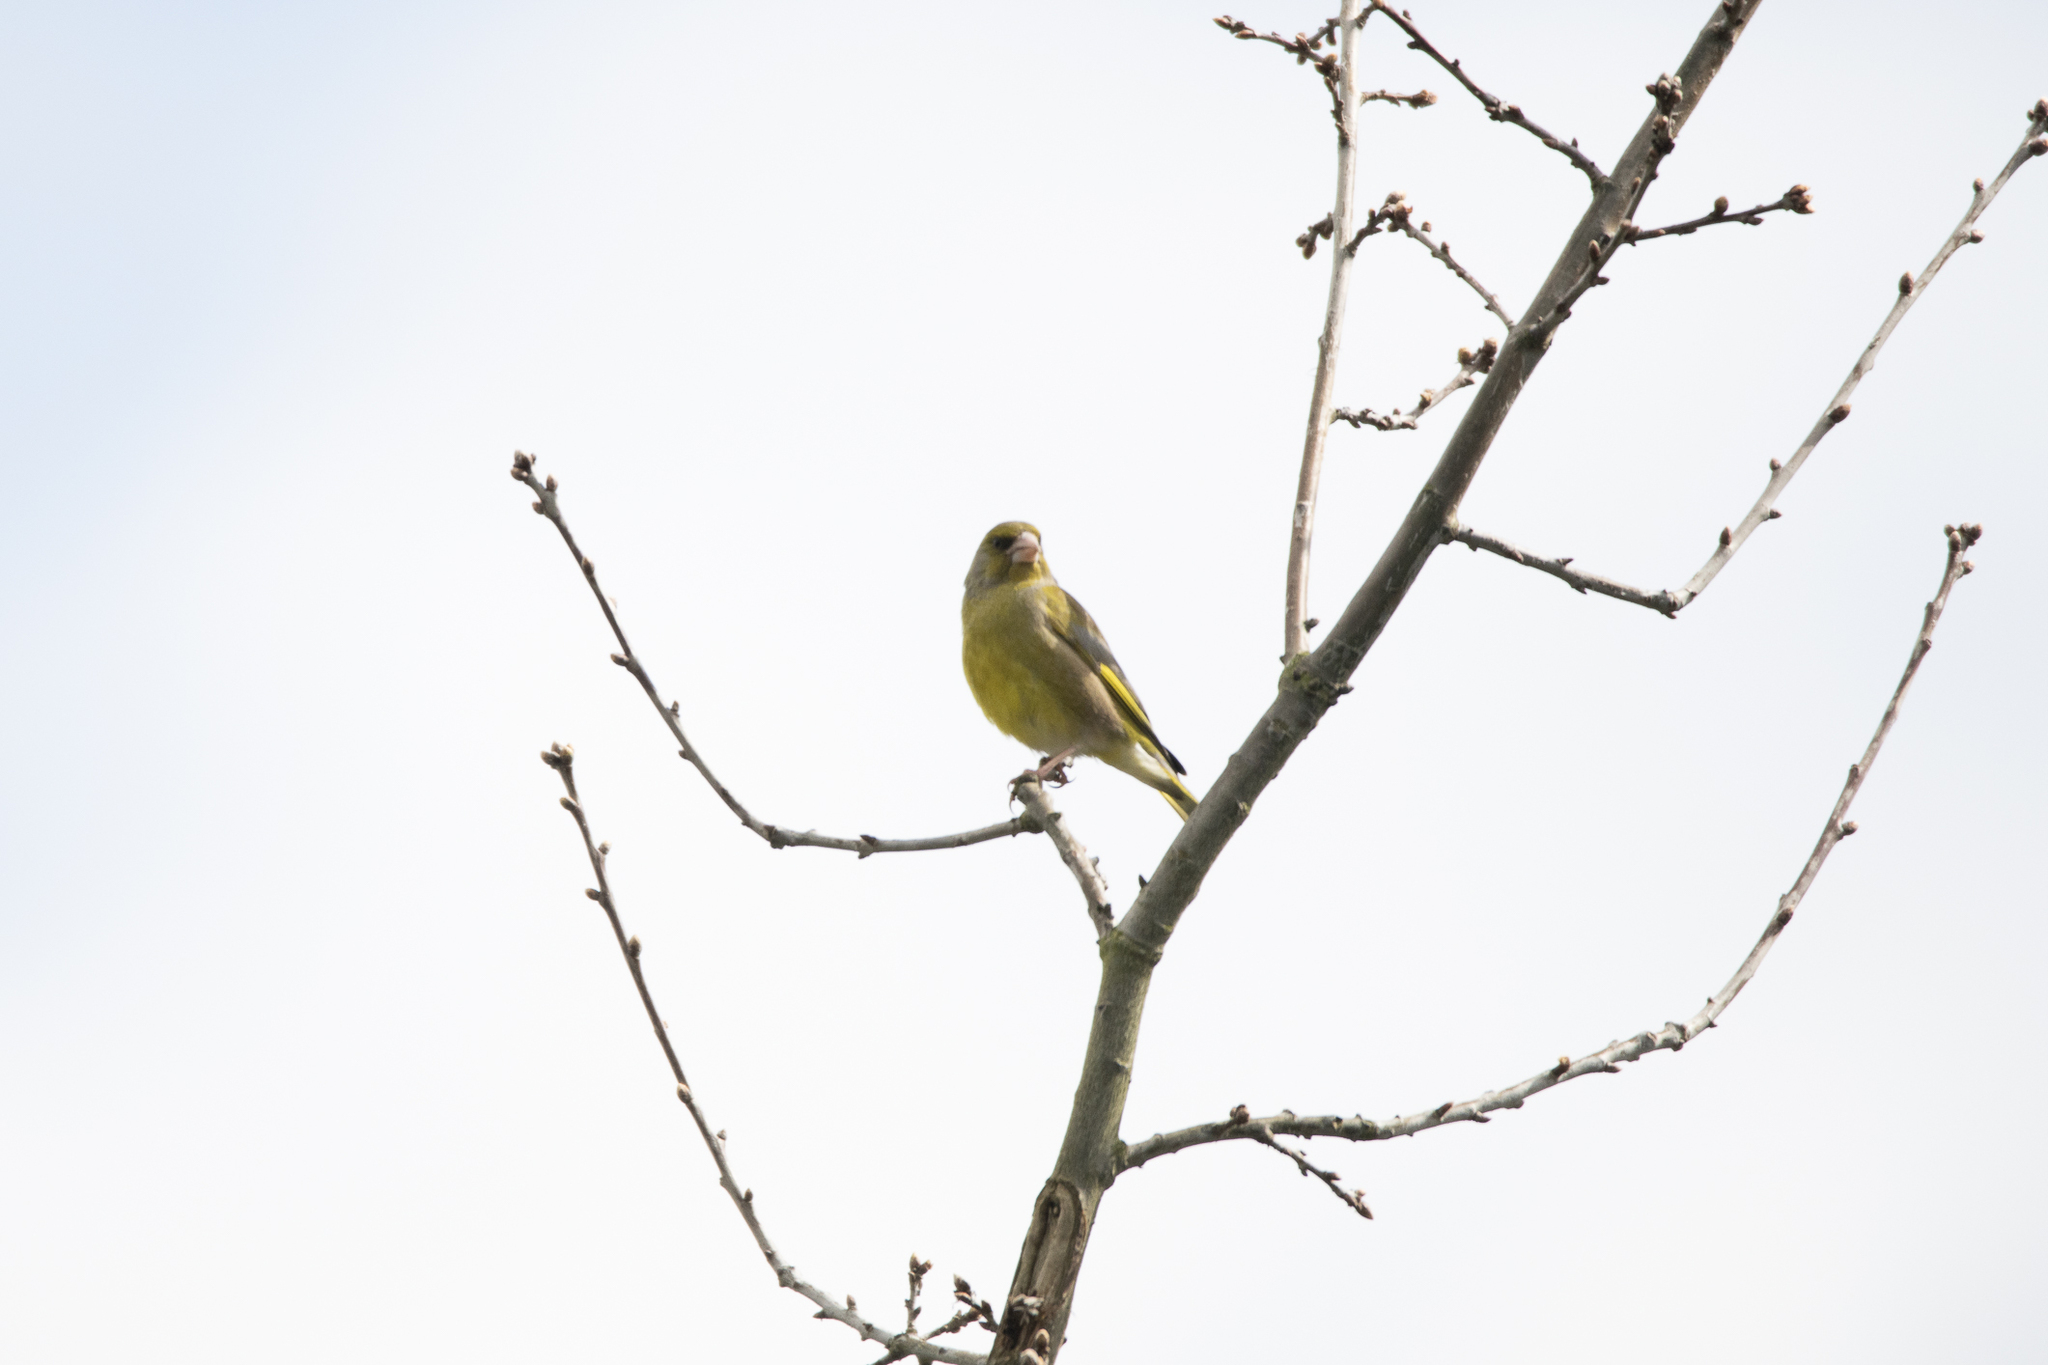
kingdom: Plantae
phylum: Tracheophyta
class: Liliopsida
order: Poales
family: Poaceae
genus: Chloris
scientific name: Chloris chloris
